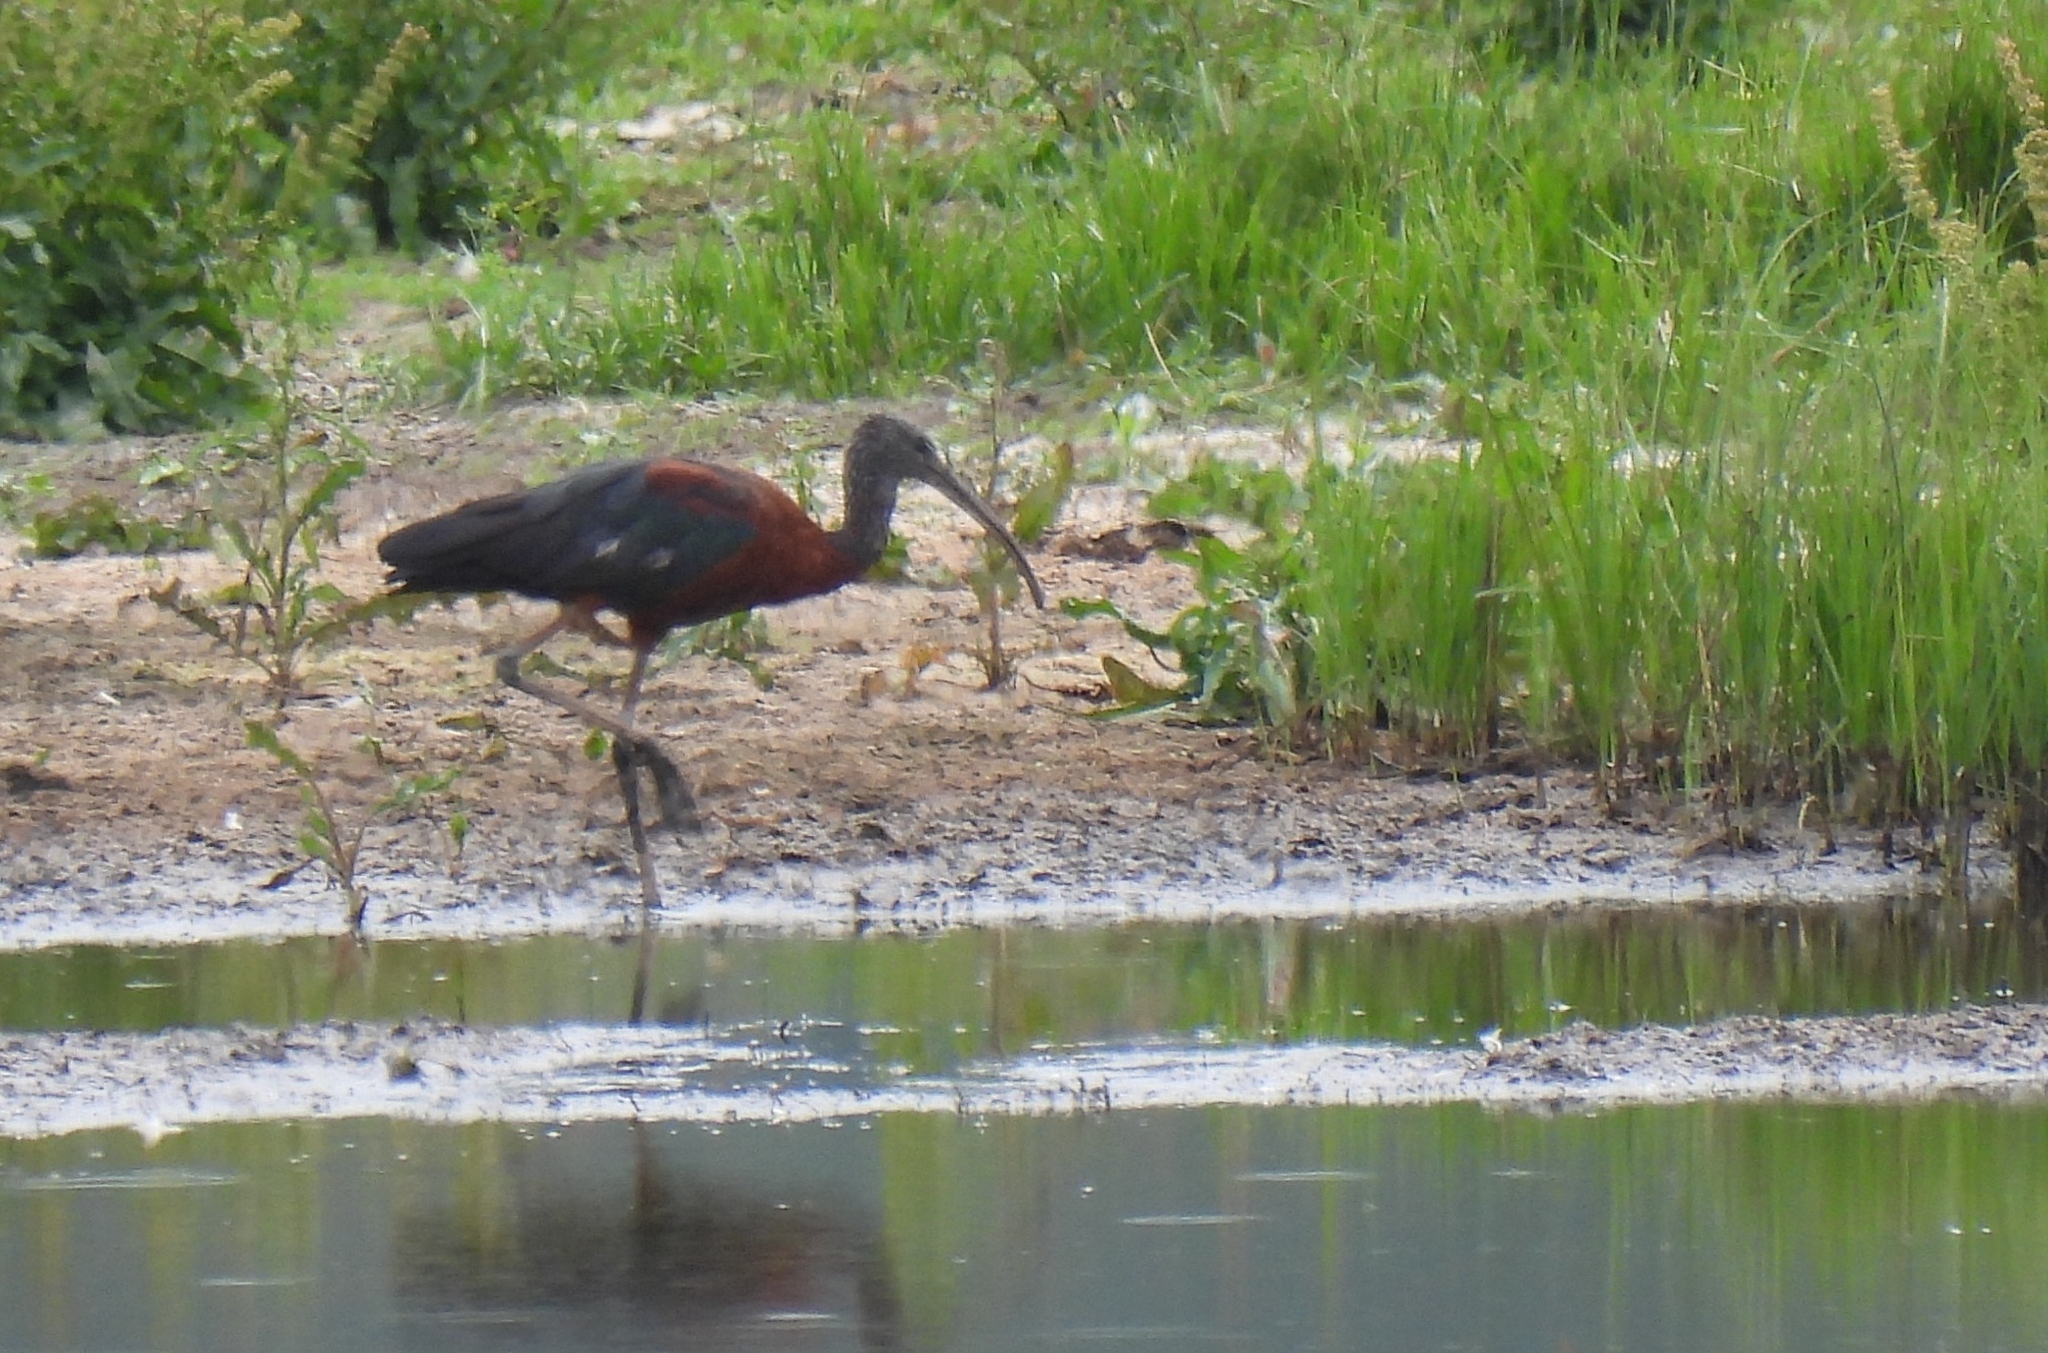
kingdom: Animalia
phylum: Chordata
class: Aves
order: Pelecaniformes
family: Threskiornithidae
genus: Plegadis
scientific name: Plegadis falcinellus
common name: Glossy ibis
